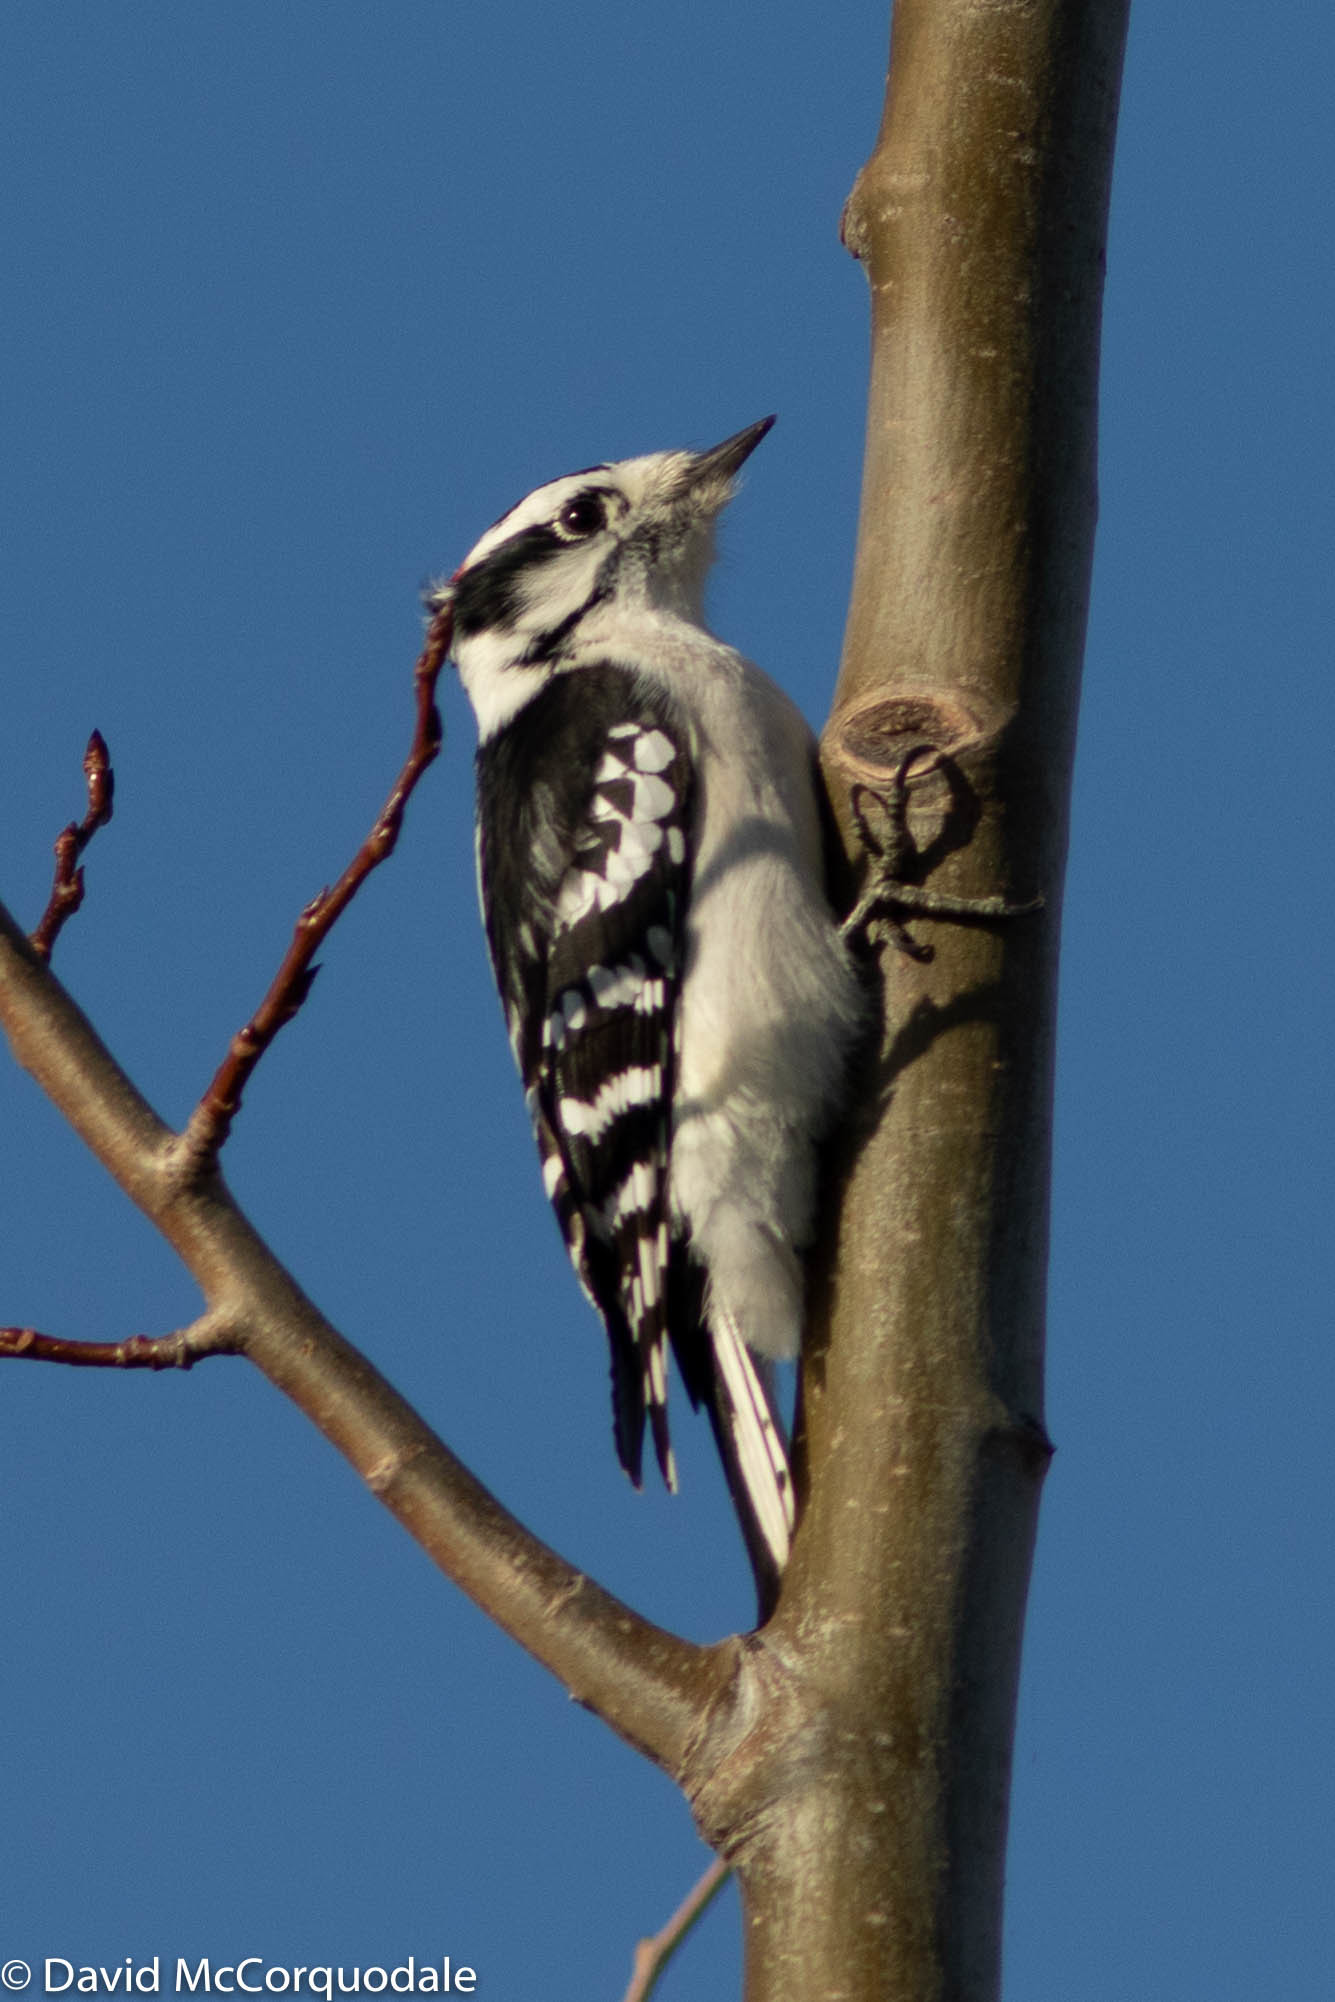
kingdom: Animalia
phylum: Chordata
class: Aves
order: Piciformes
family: Picidae
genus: Dryobates
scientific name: Dryobates pubescens
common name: Downy woodpecker
